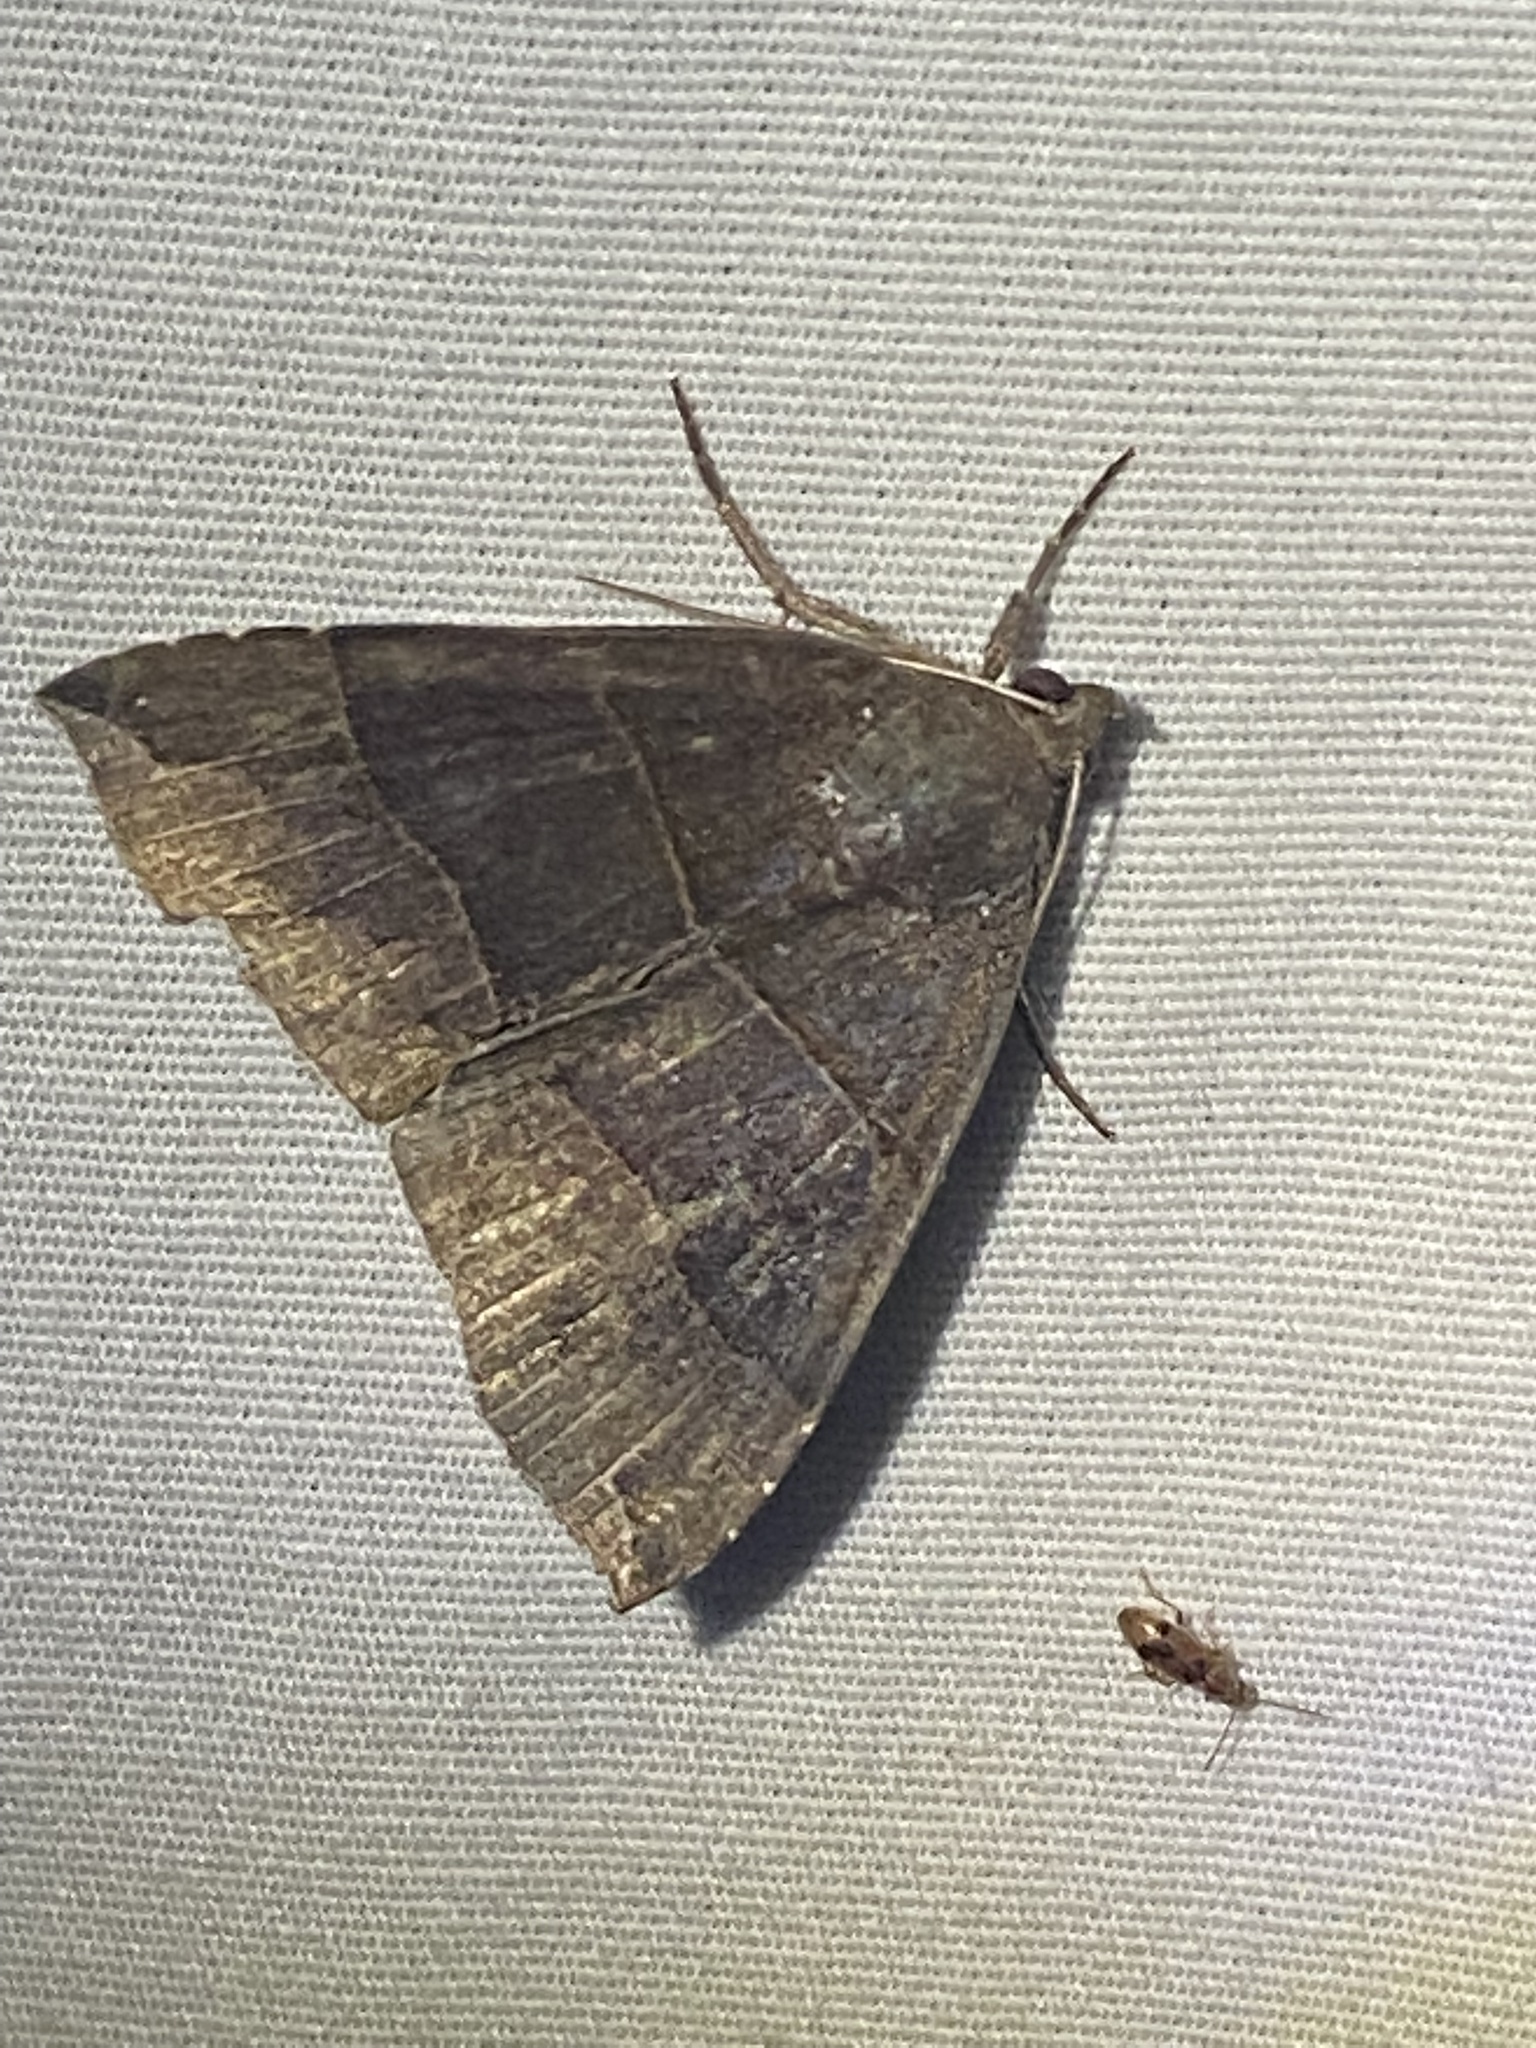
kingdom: Animalia
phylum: Arthropoda
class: Insecta
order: Lepidoptera
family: Erebidae
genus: Parallelia
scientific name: Parallelia bistriaris
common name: Maple looper moth
